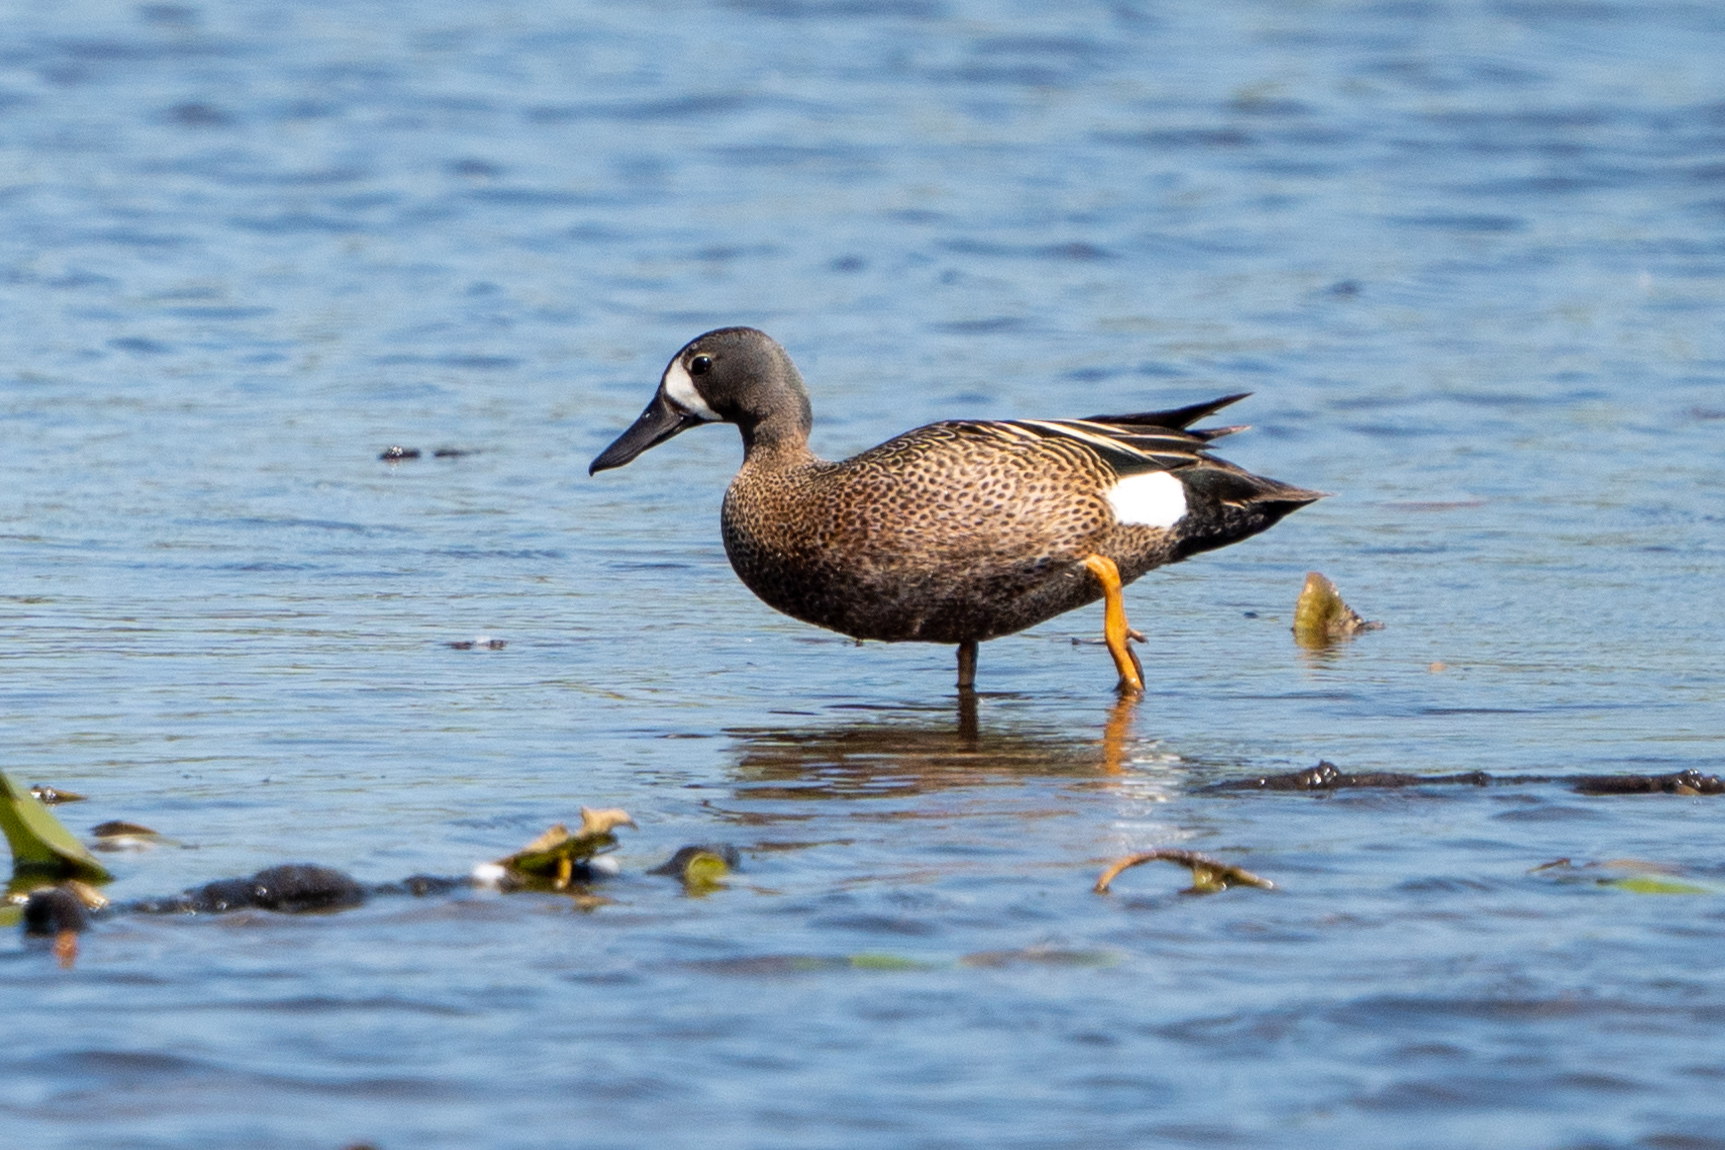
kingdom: Animalia
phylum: Chordata
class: Aves
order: Anseriformes
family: Anatidae
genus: Spatula
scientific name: Spatula discors
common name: Blue-winged teal
